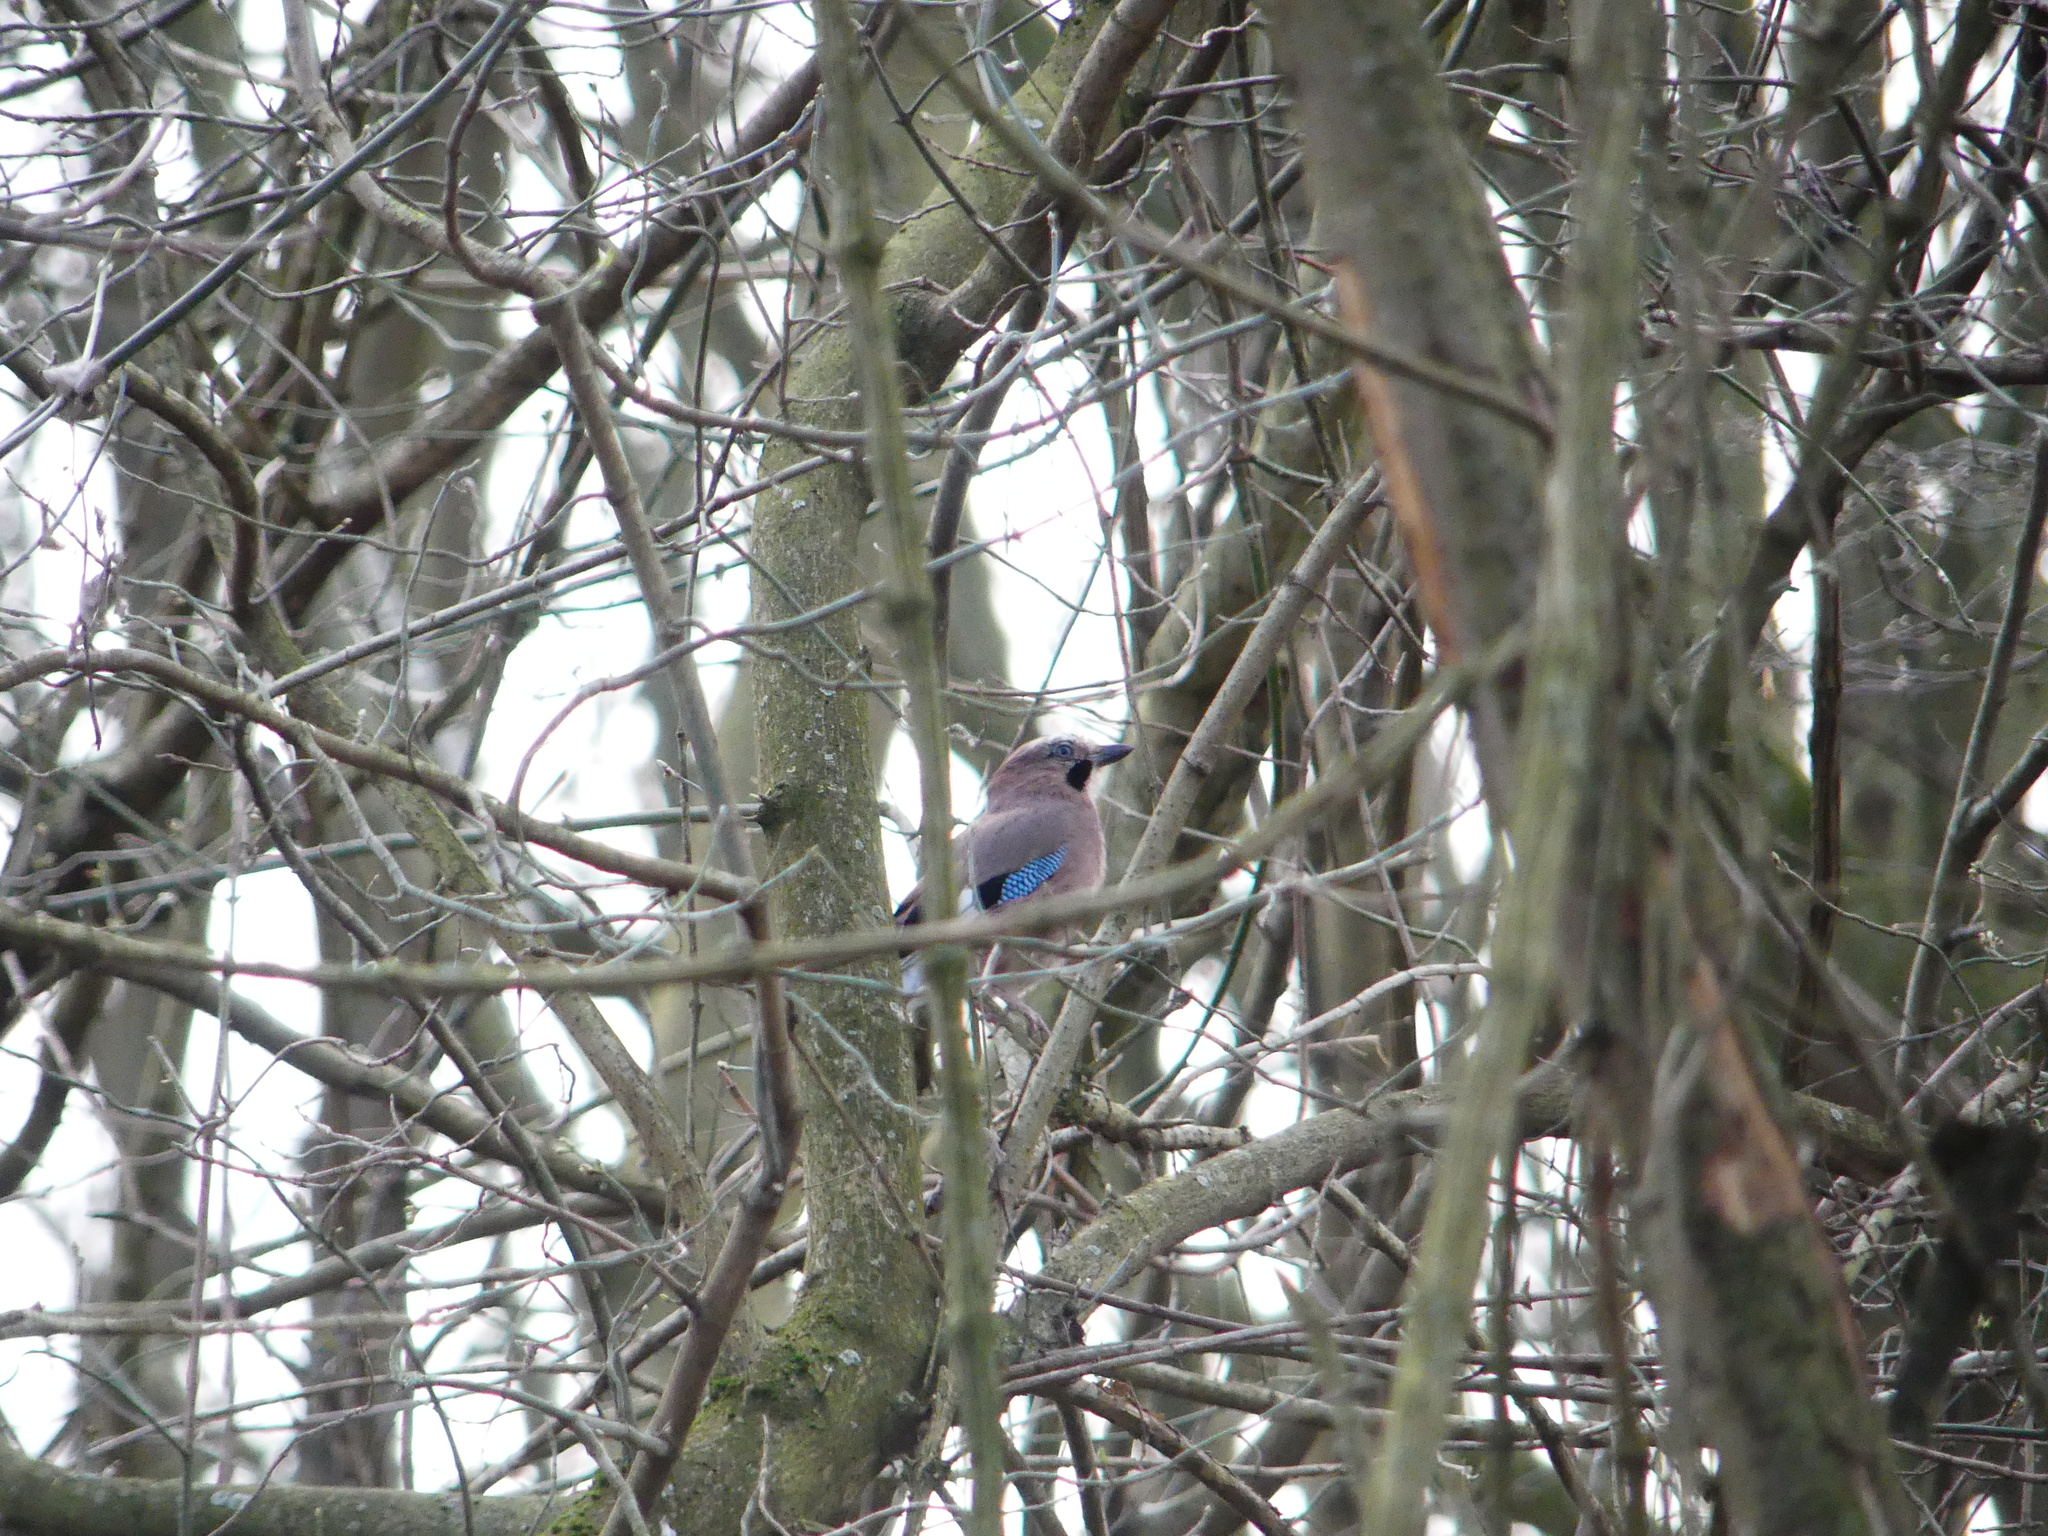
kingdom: Animalia
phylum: Chordata
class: Aves
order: Passeriformes
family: Corvidae
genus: Garrulus
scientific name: Garrulus glandarius
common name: Eurasian jay
